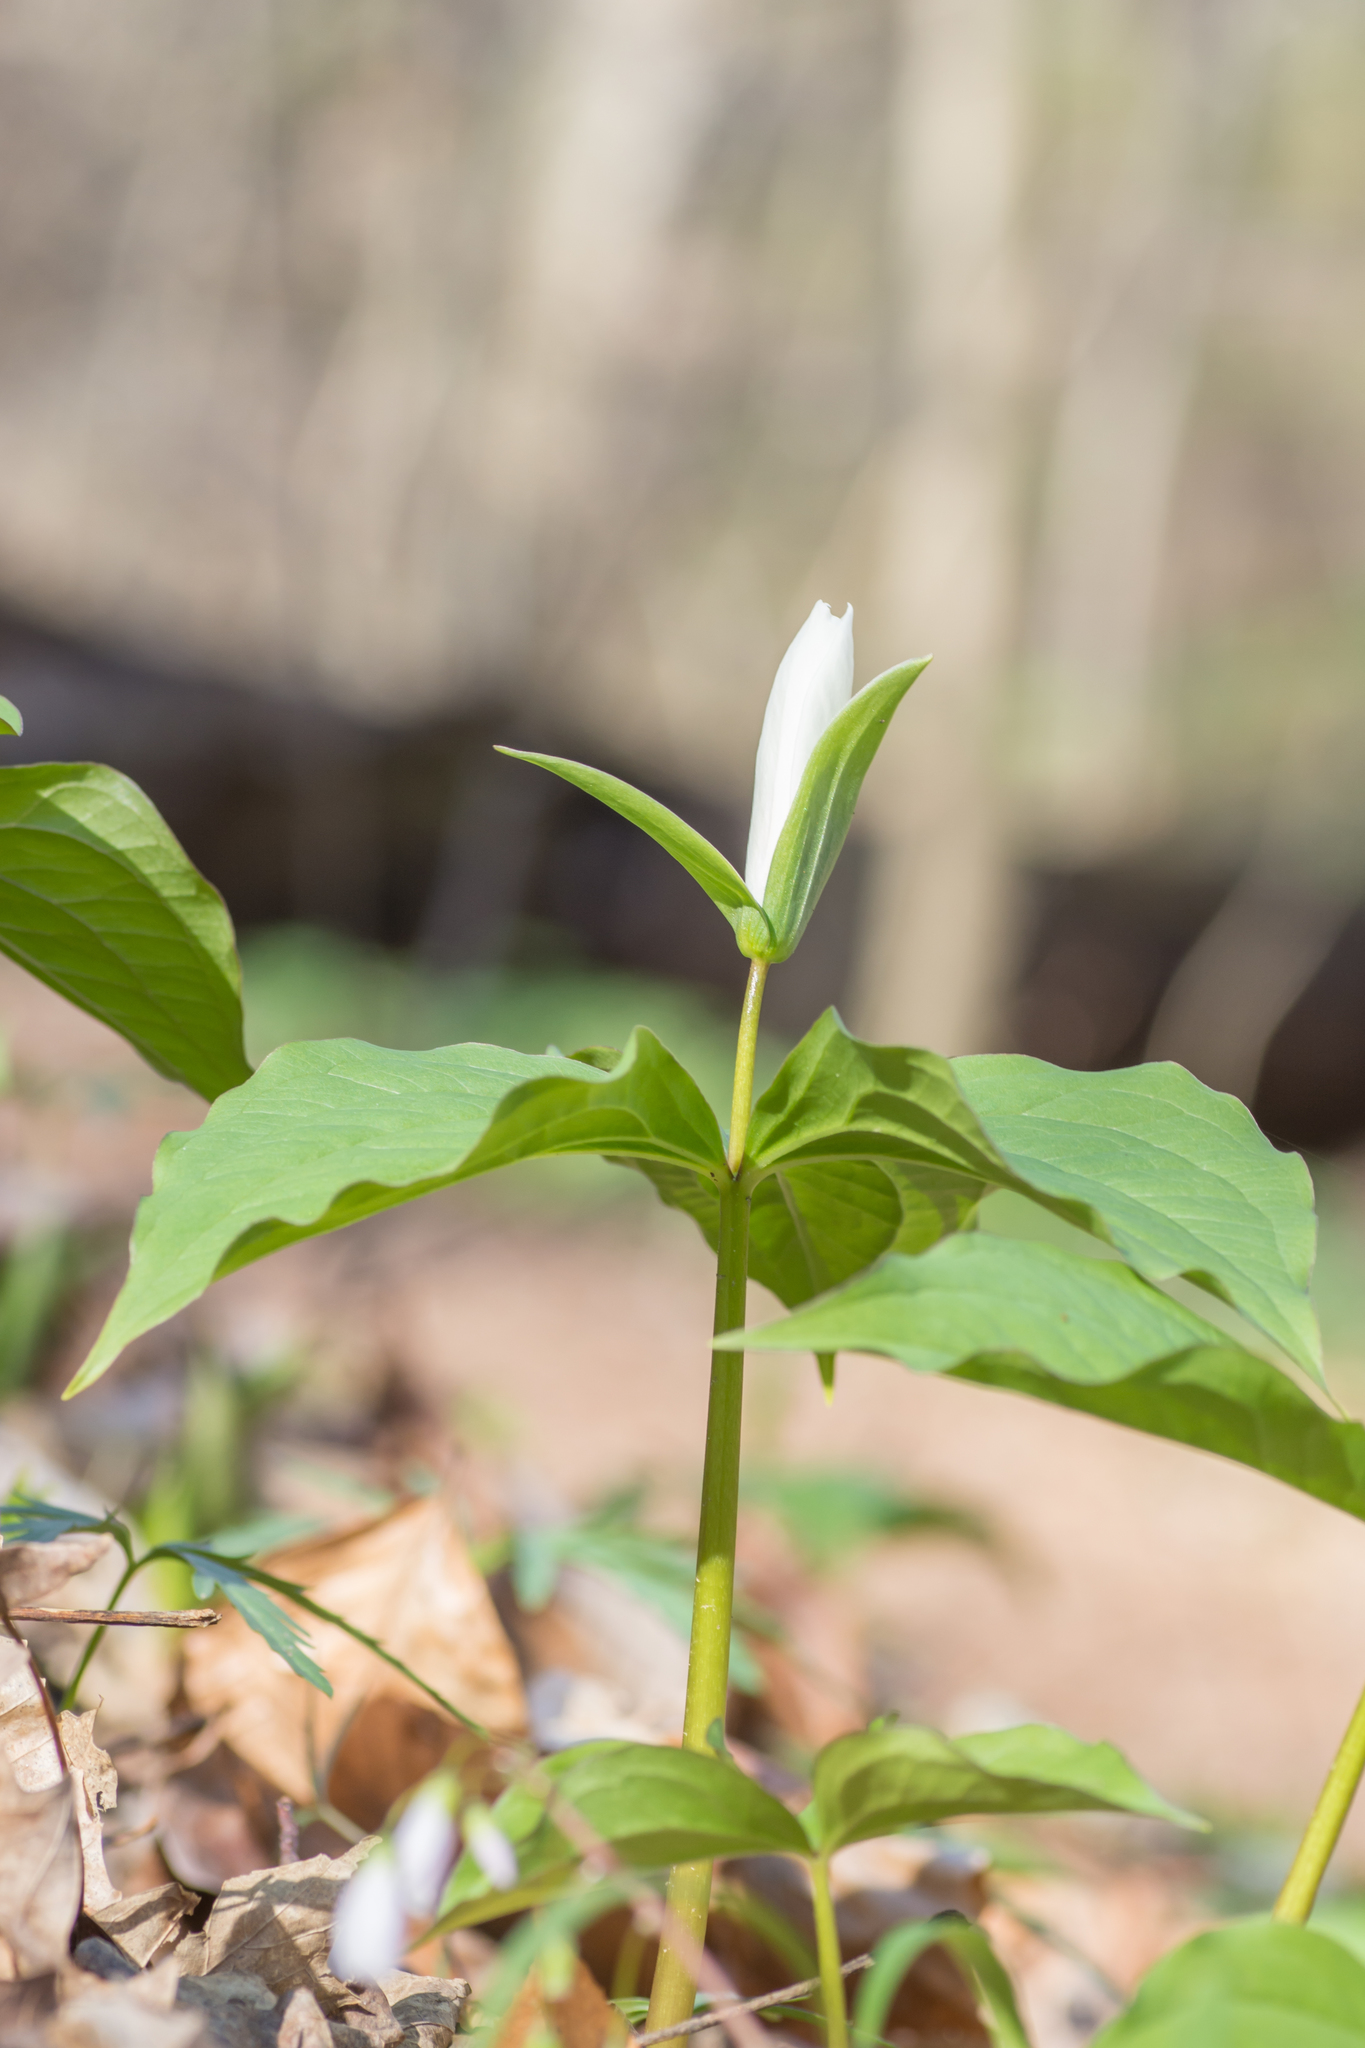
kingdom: Plantae
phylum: Tracheophyta
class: Liliopsida
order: Liliales
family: Melanthiaceae
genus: Trillium
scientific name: Trillium grandiflorum
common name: Great white trillium
